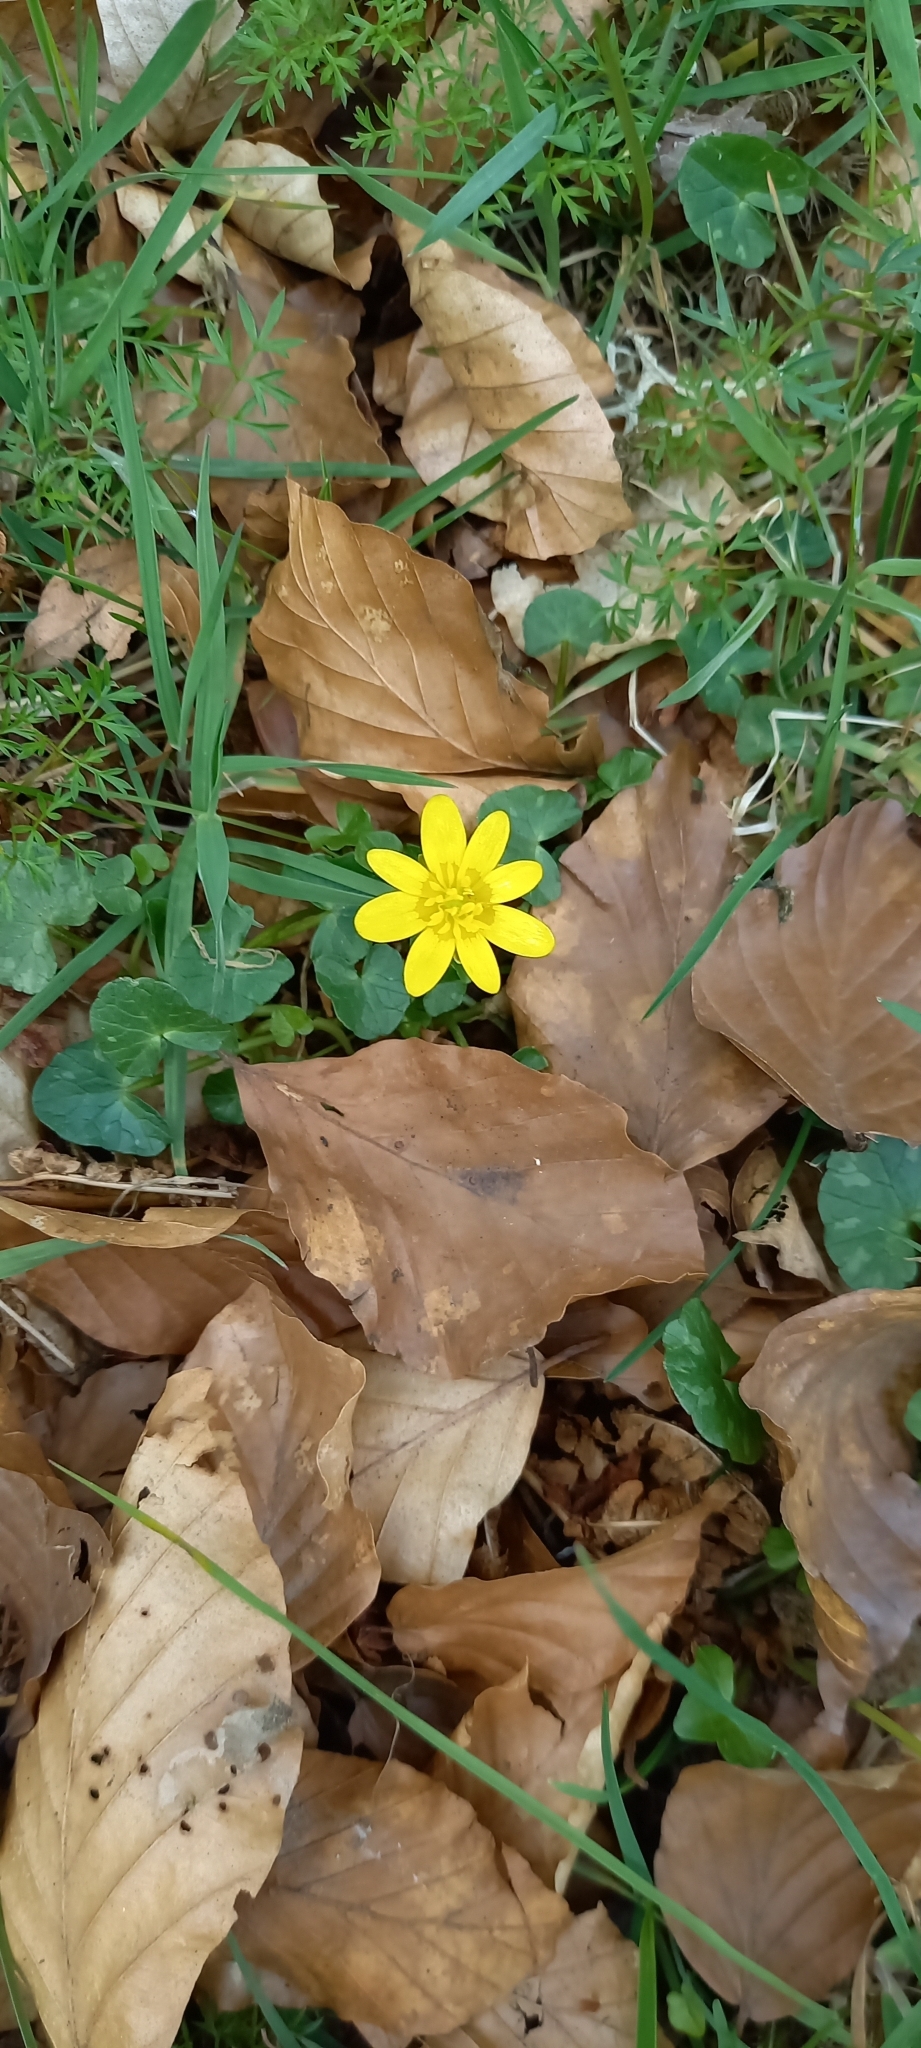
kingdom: Plantae
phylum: Tracheophyta
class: Magnoliopsida
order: Ranunculales
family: Ranunculaceae
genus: Ficaria
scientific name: Ficaria verna
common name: Lesser celandine
